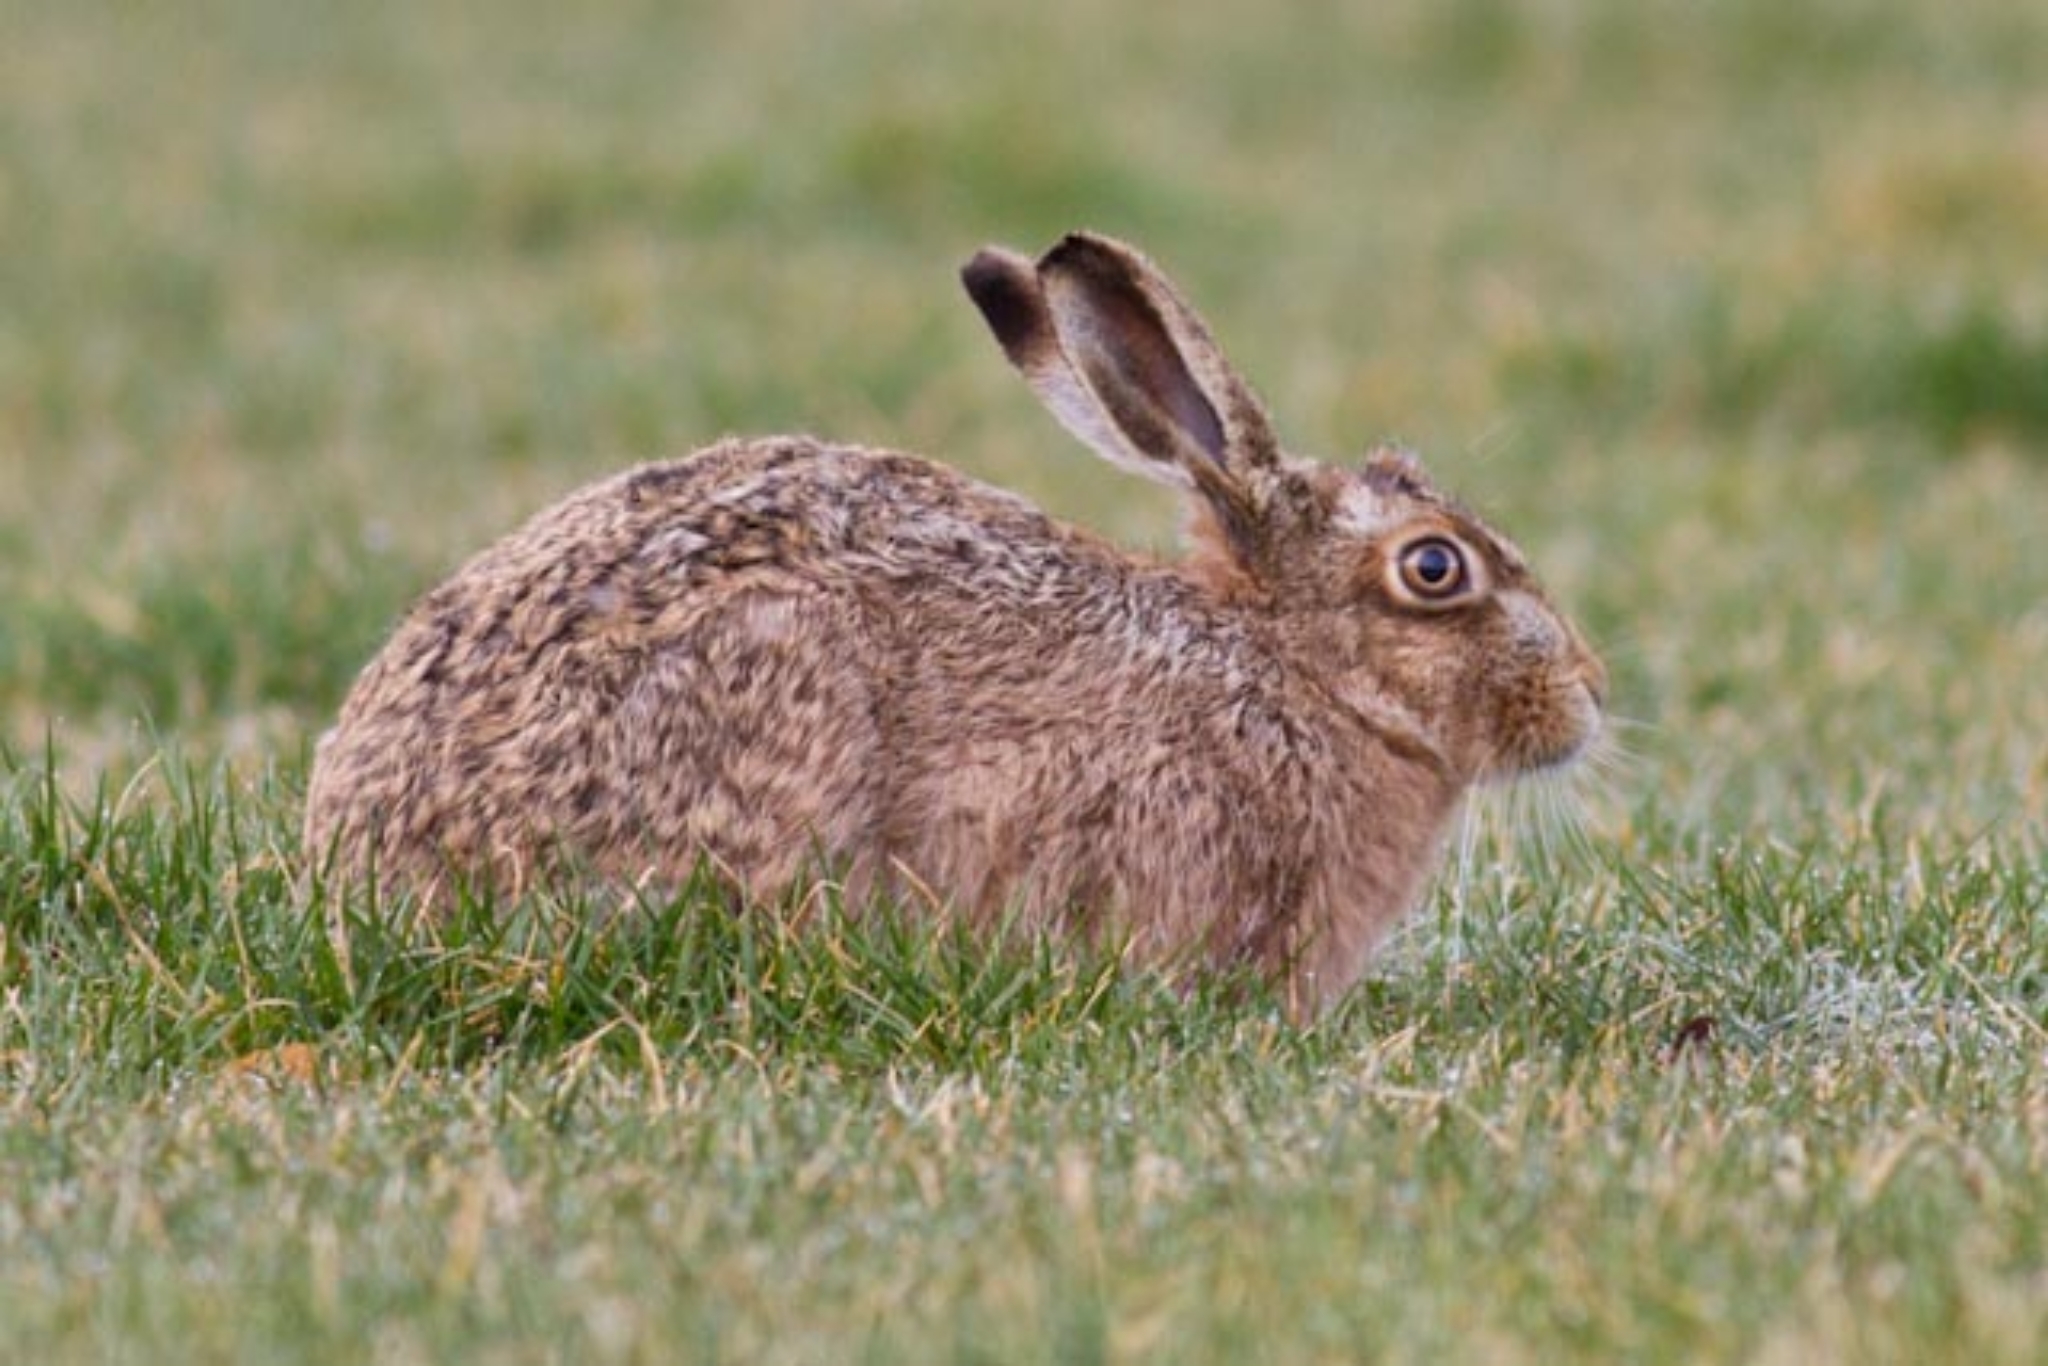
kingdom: Animalia
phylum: Chordata
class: Mammalia
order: Lagomorpha
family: Leporidae
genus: Lepus
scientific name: Lepus europaeus
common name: European hare
